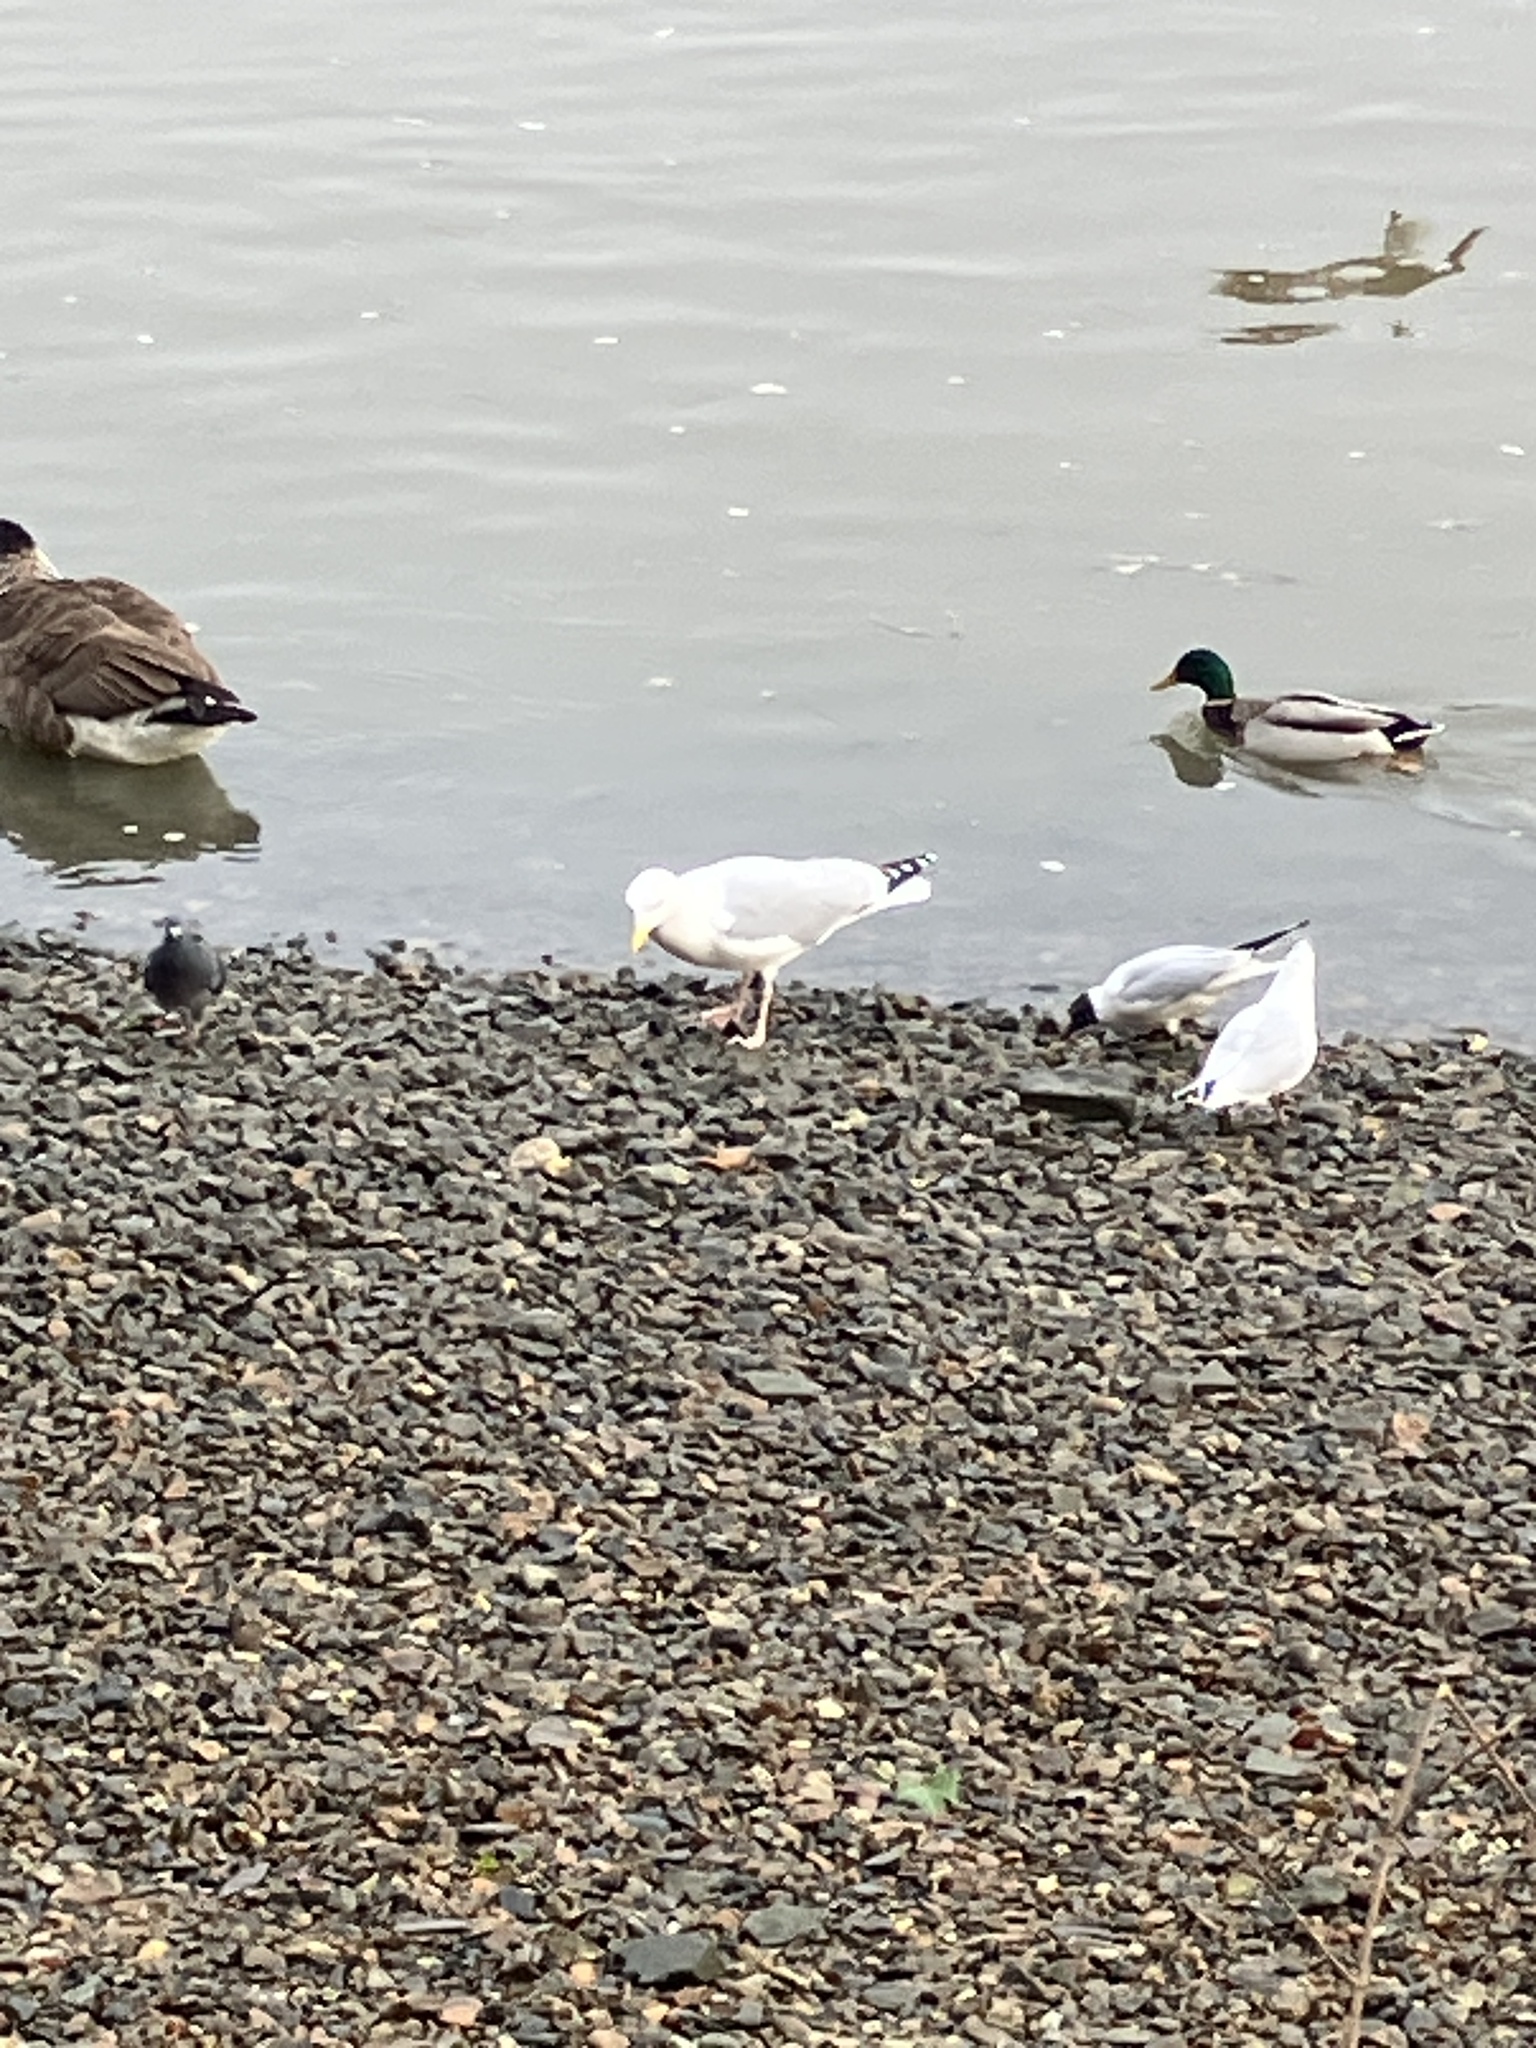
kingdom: Animalia
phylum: Chordata
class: Aves
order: Charadriiformes
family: Laridae
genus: Larus
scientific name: Larus argentatus
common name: Herring gull
